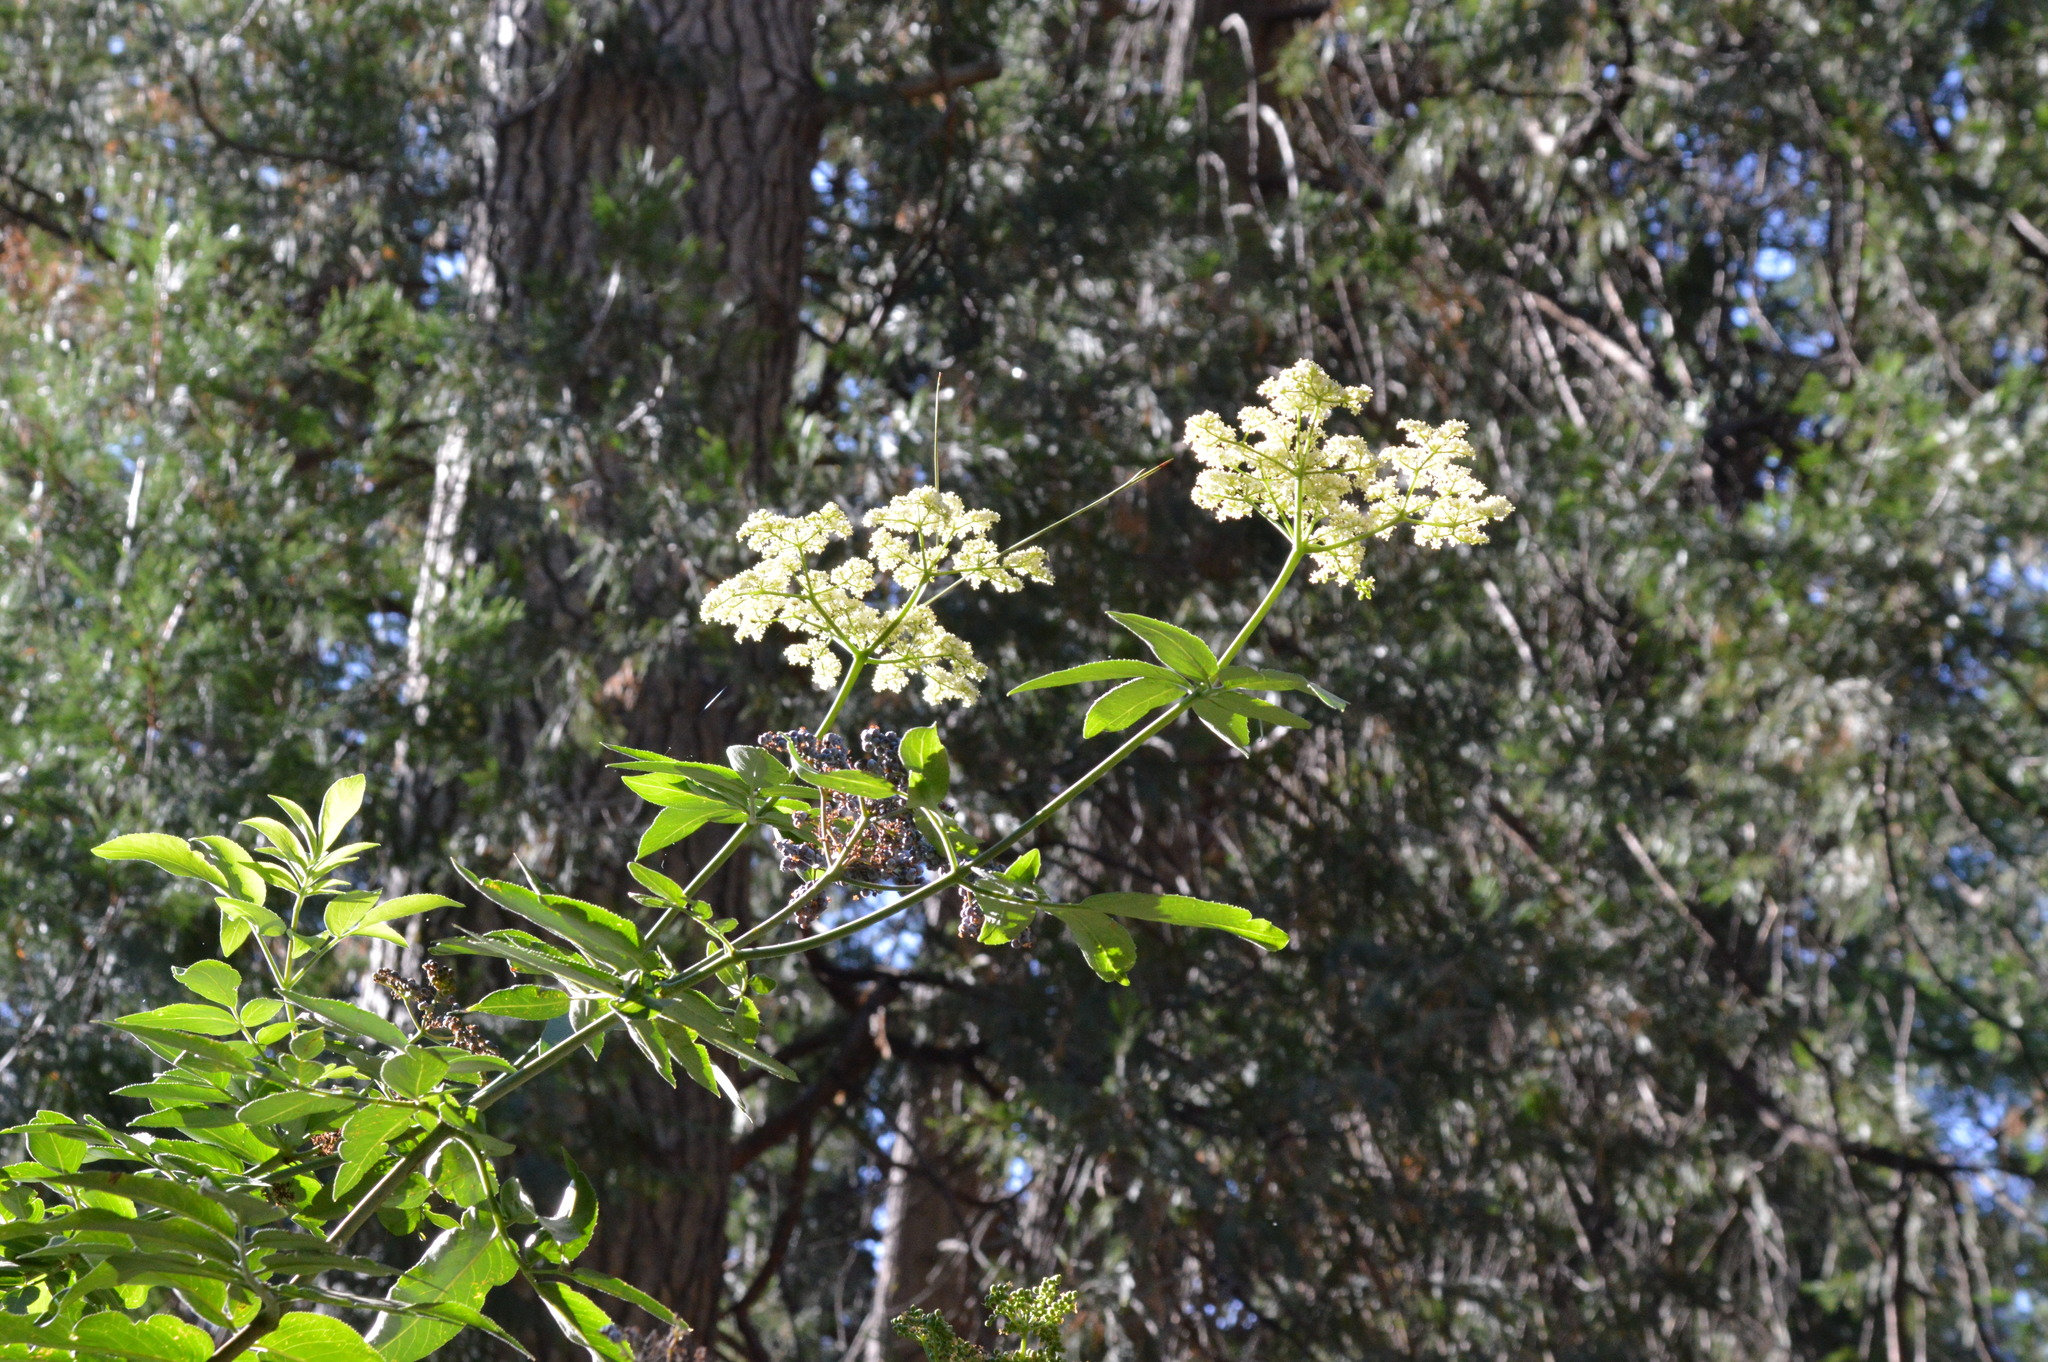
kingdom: Plantae
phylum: Tracheophyta
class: Magnoliopsida
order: Dipsacales
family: Viburnaceae
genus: Sambucus
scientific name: Sambucus cerulea
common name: Blue elder
